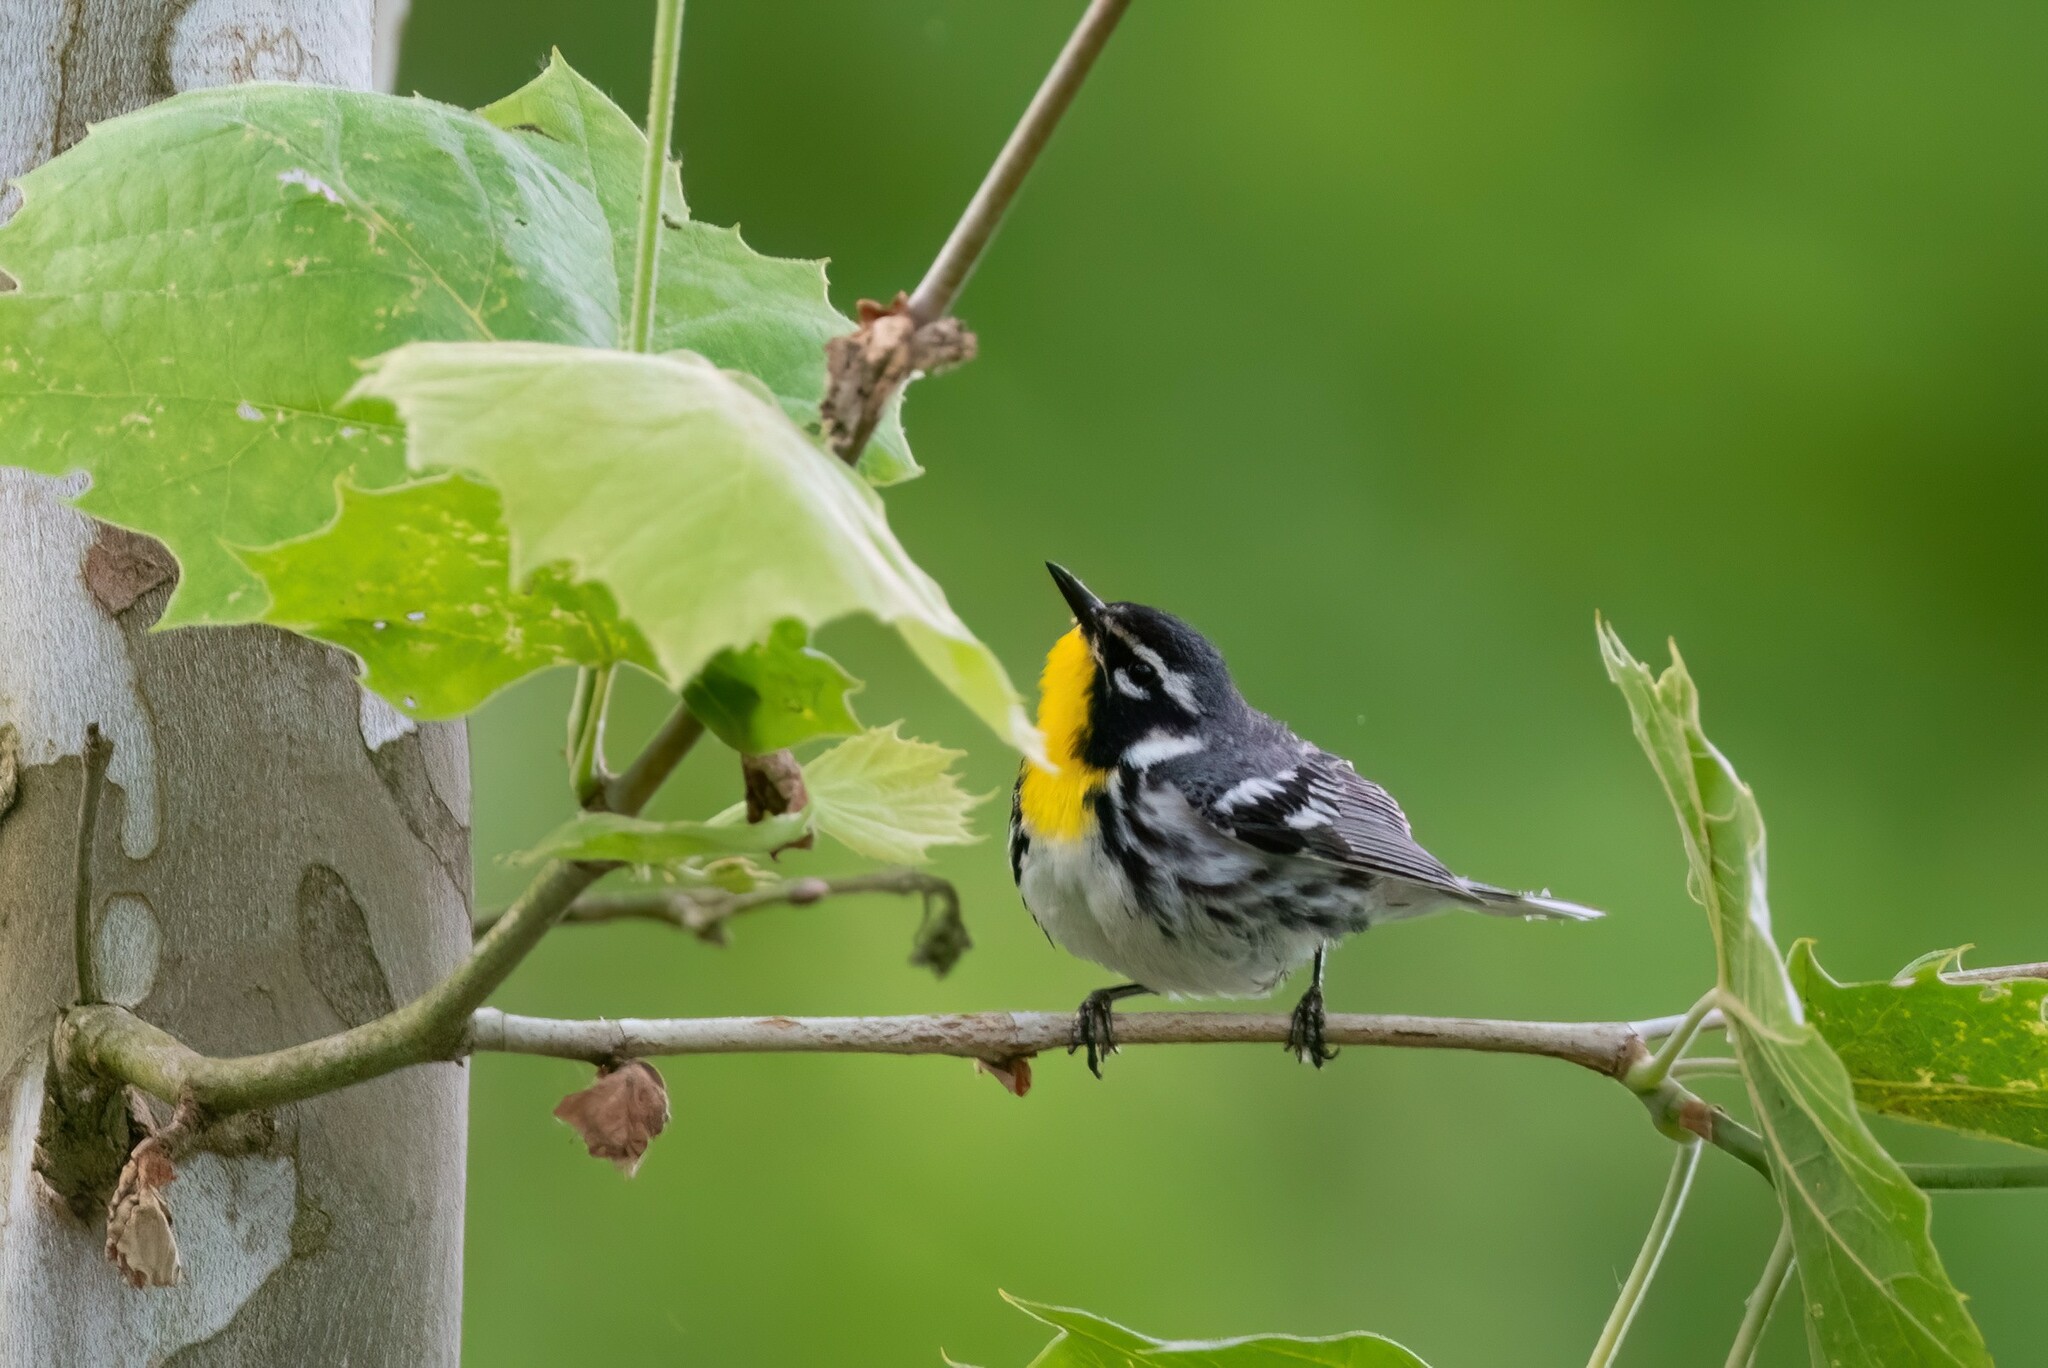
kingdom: Animalia
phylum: Chordata
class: Aves
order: Passeriformes
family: Parulidae
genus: Setophaga
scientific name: Setophaga dominica
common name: Yellow-throated warbler
